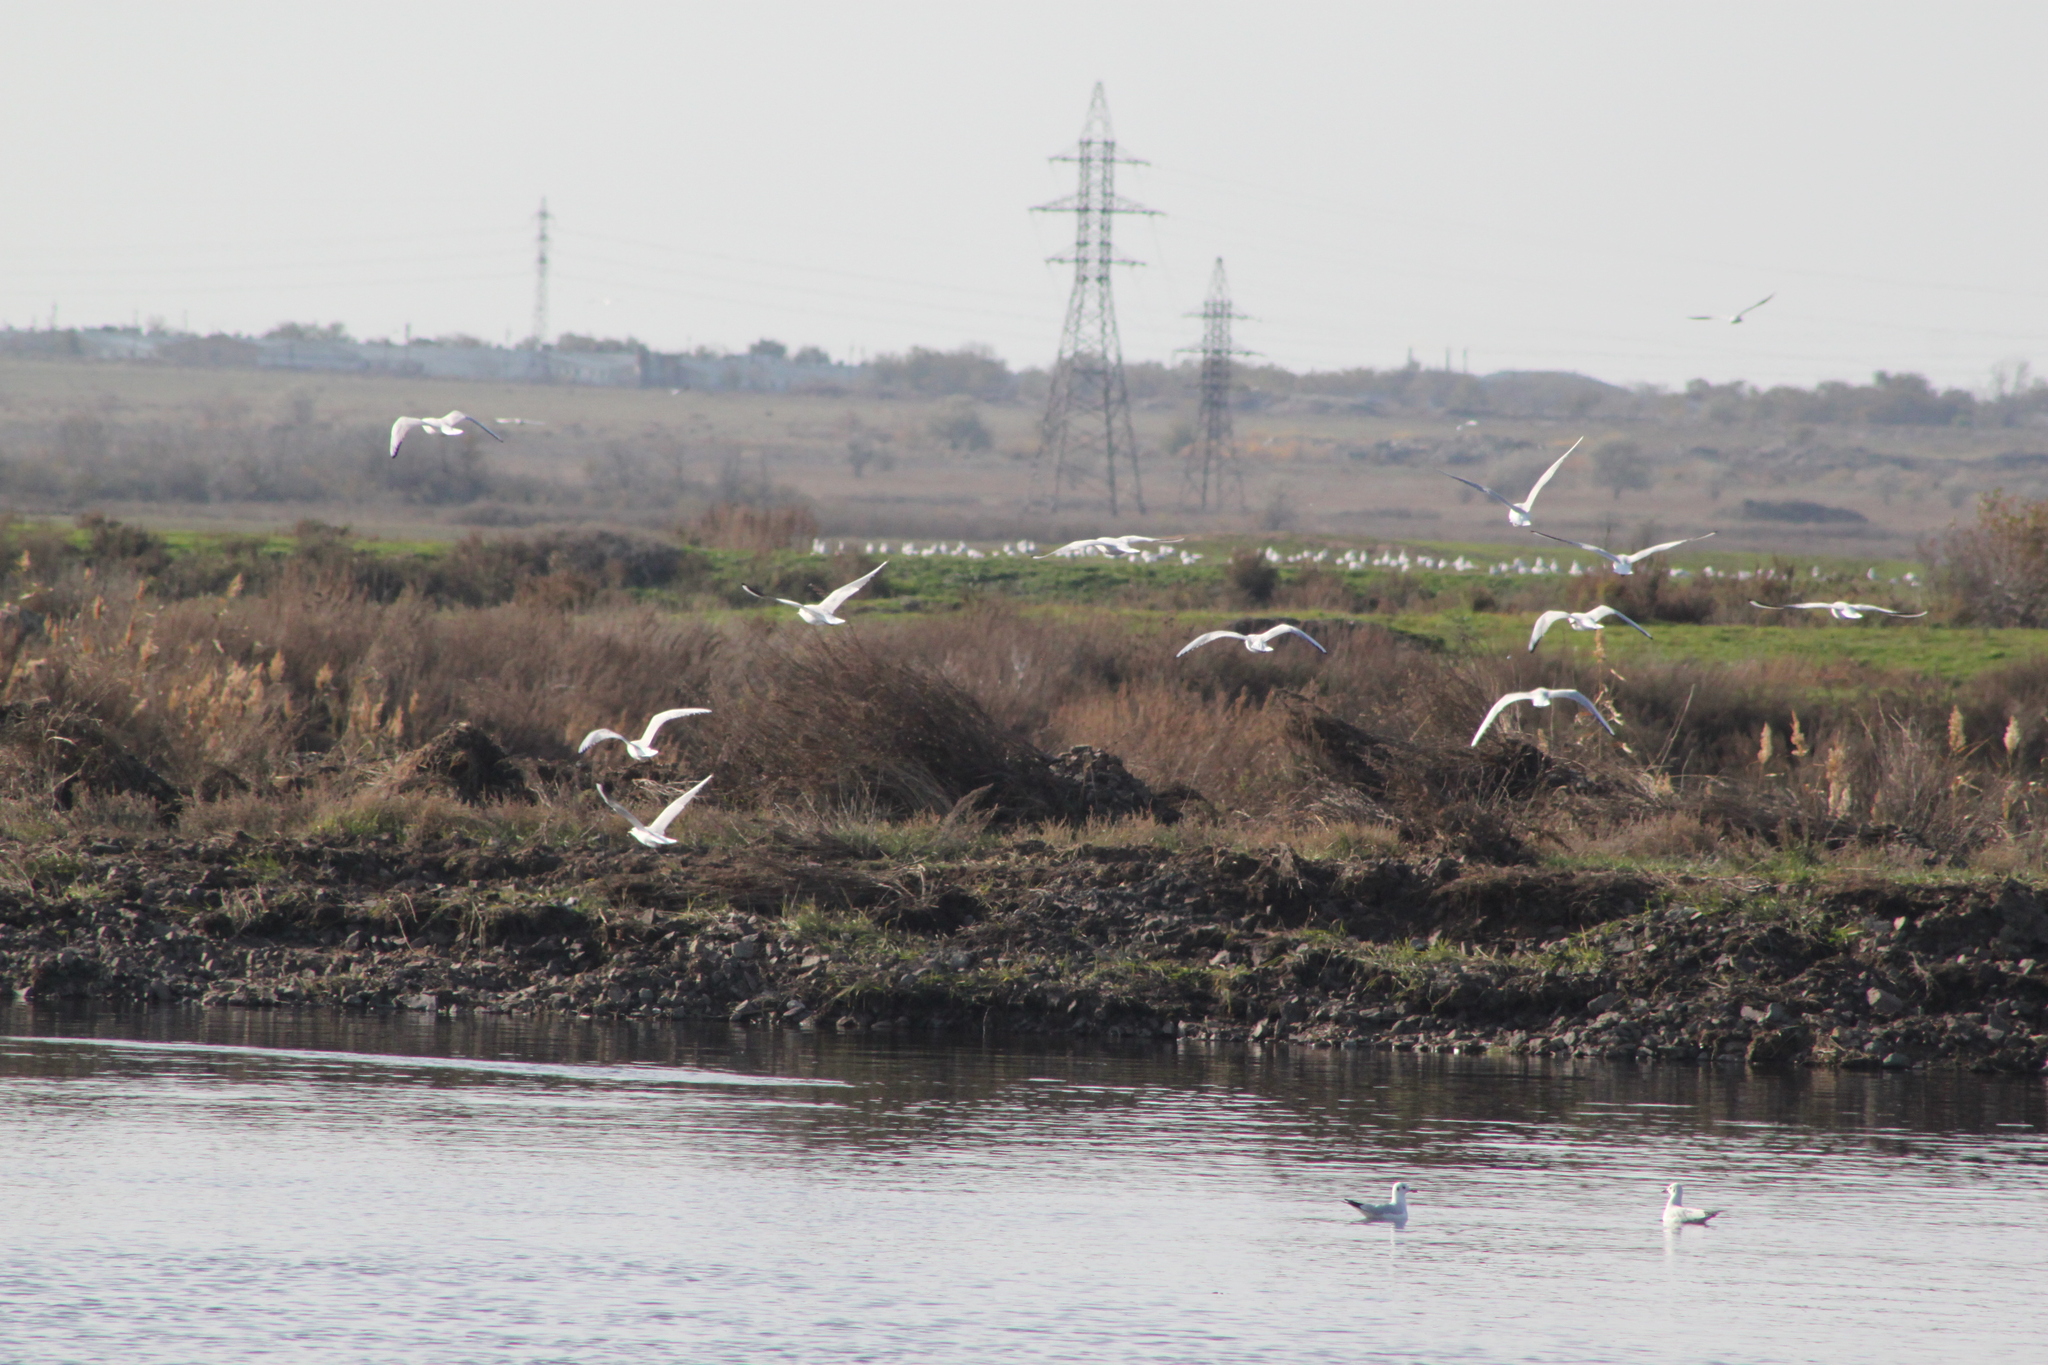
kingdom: Animalia
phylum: Chordata
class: Aves
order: Charadriiformes
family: Laridae
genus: Chroicocephalus
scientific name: Chroicocephalus ridibundus
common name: Black-headed gull
